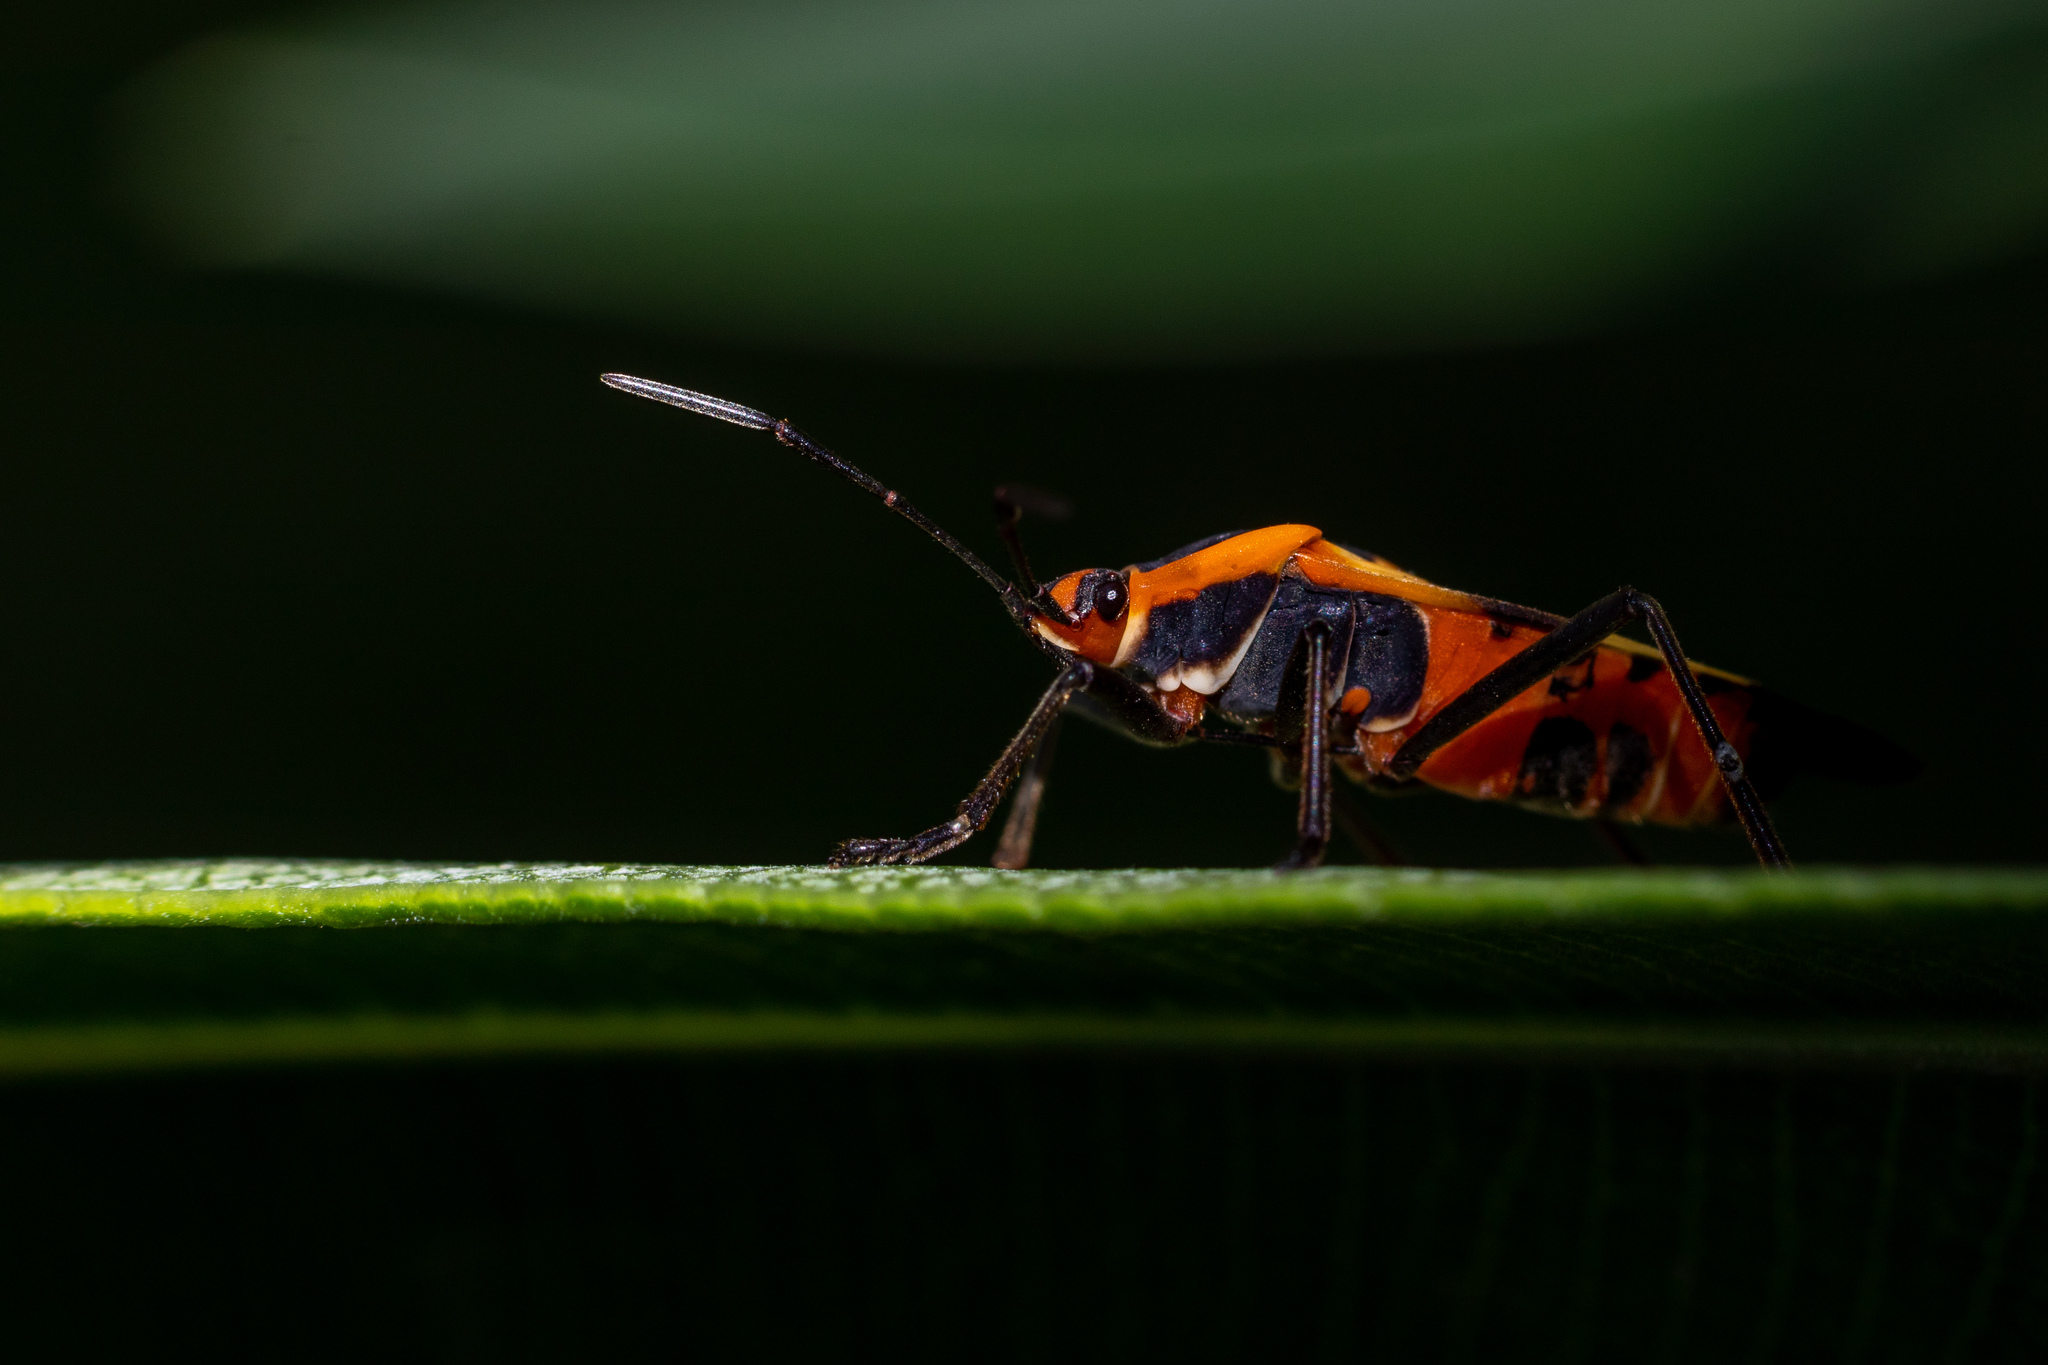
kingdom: Animalia
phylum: Arthropoda
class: Insecta
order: Hemiptera
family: Lygaeidae
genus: Oncopeltus
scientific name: Oncopeltus fasciatus
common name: Large milkweed bug
